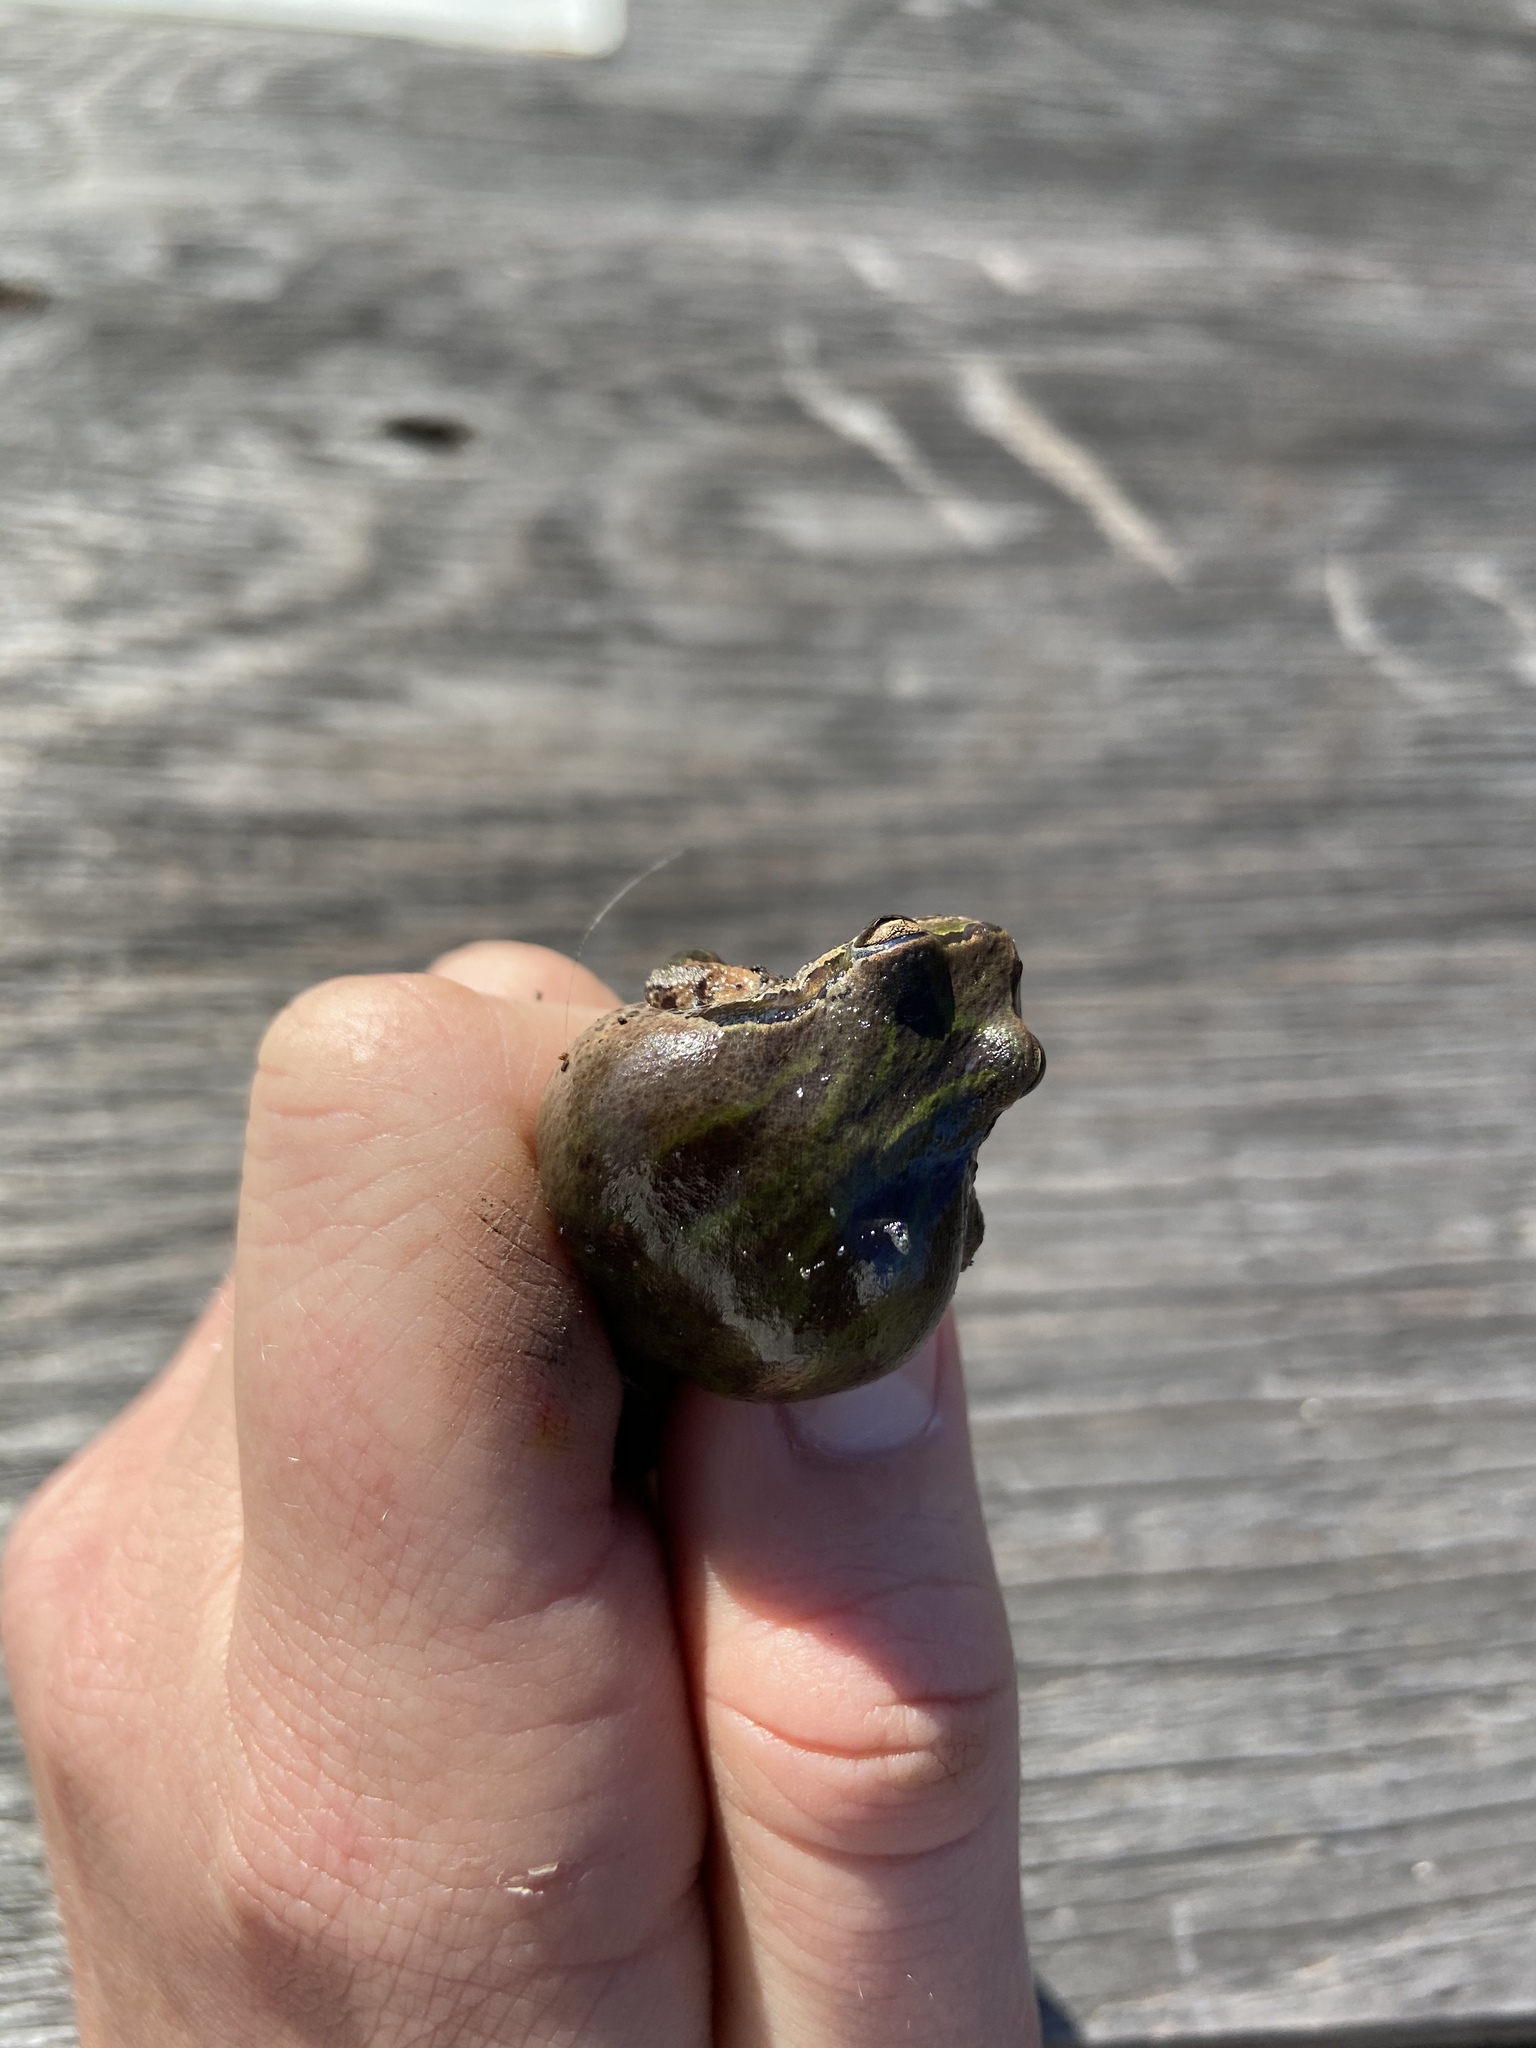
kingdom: Animalia
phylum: Chordata
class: Amphibia
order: Anura
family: Hylidae
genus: Pseudacris
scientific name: Pseudacris regilla
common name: Pacific chorus frog
